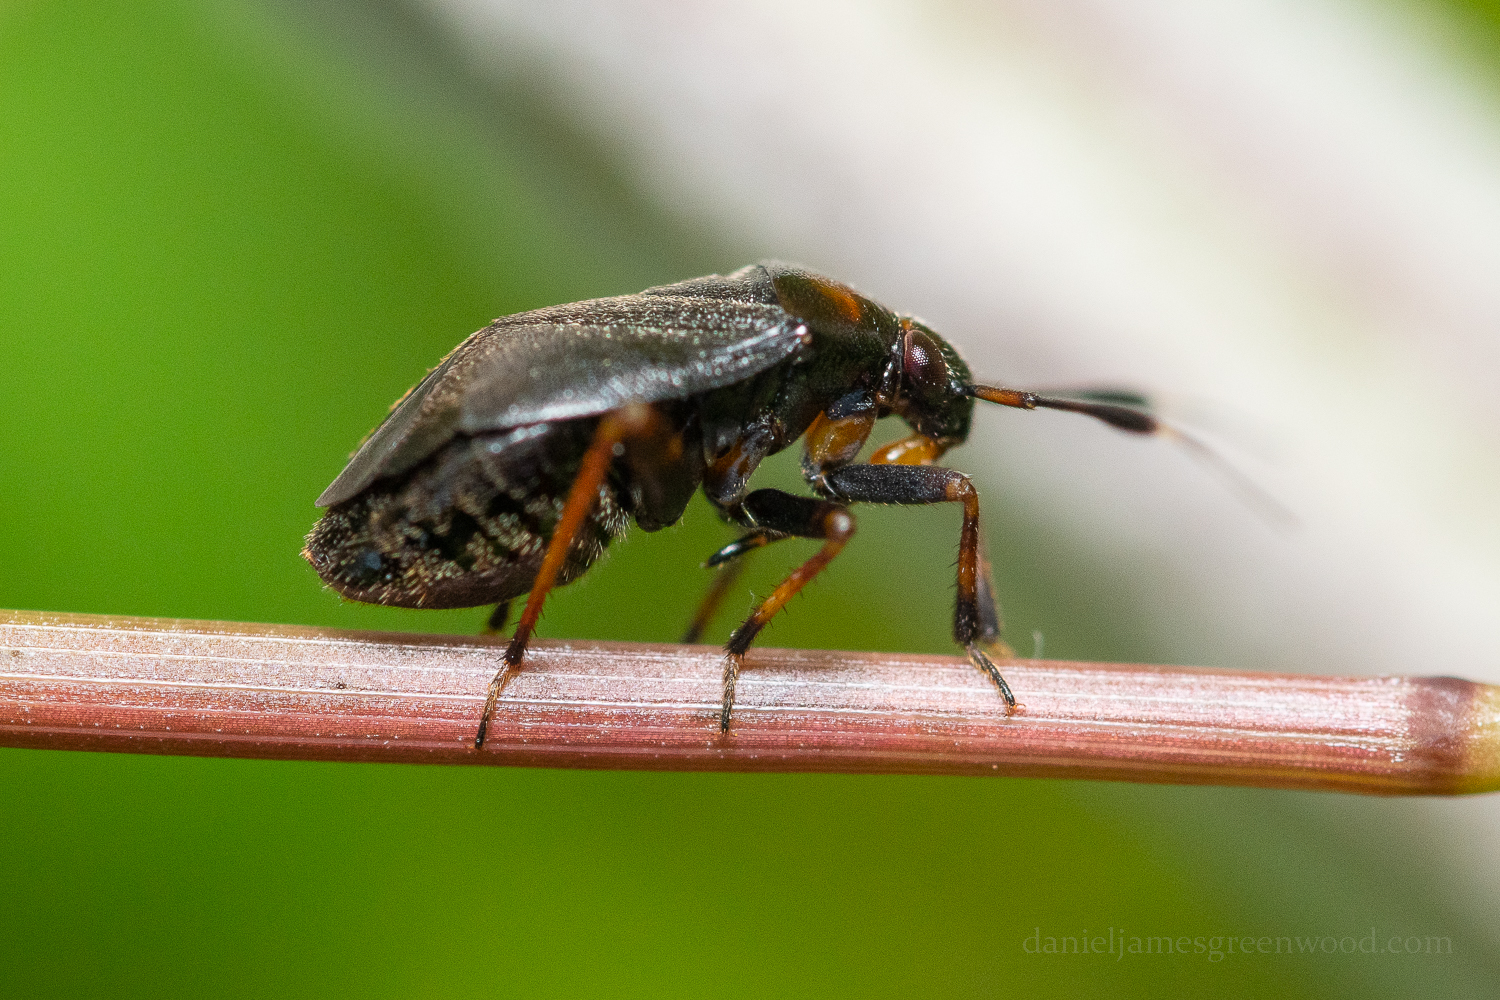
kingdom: Animalia
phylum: Arthropoda
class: Insecta
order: Hemiptera
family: Miridae
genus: Capsus
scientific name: Capsus ater
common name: Black plant bug
